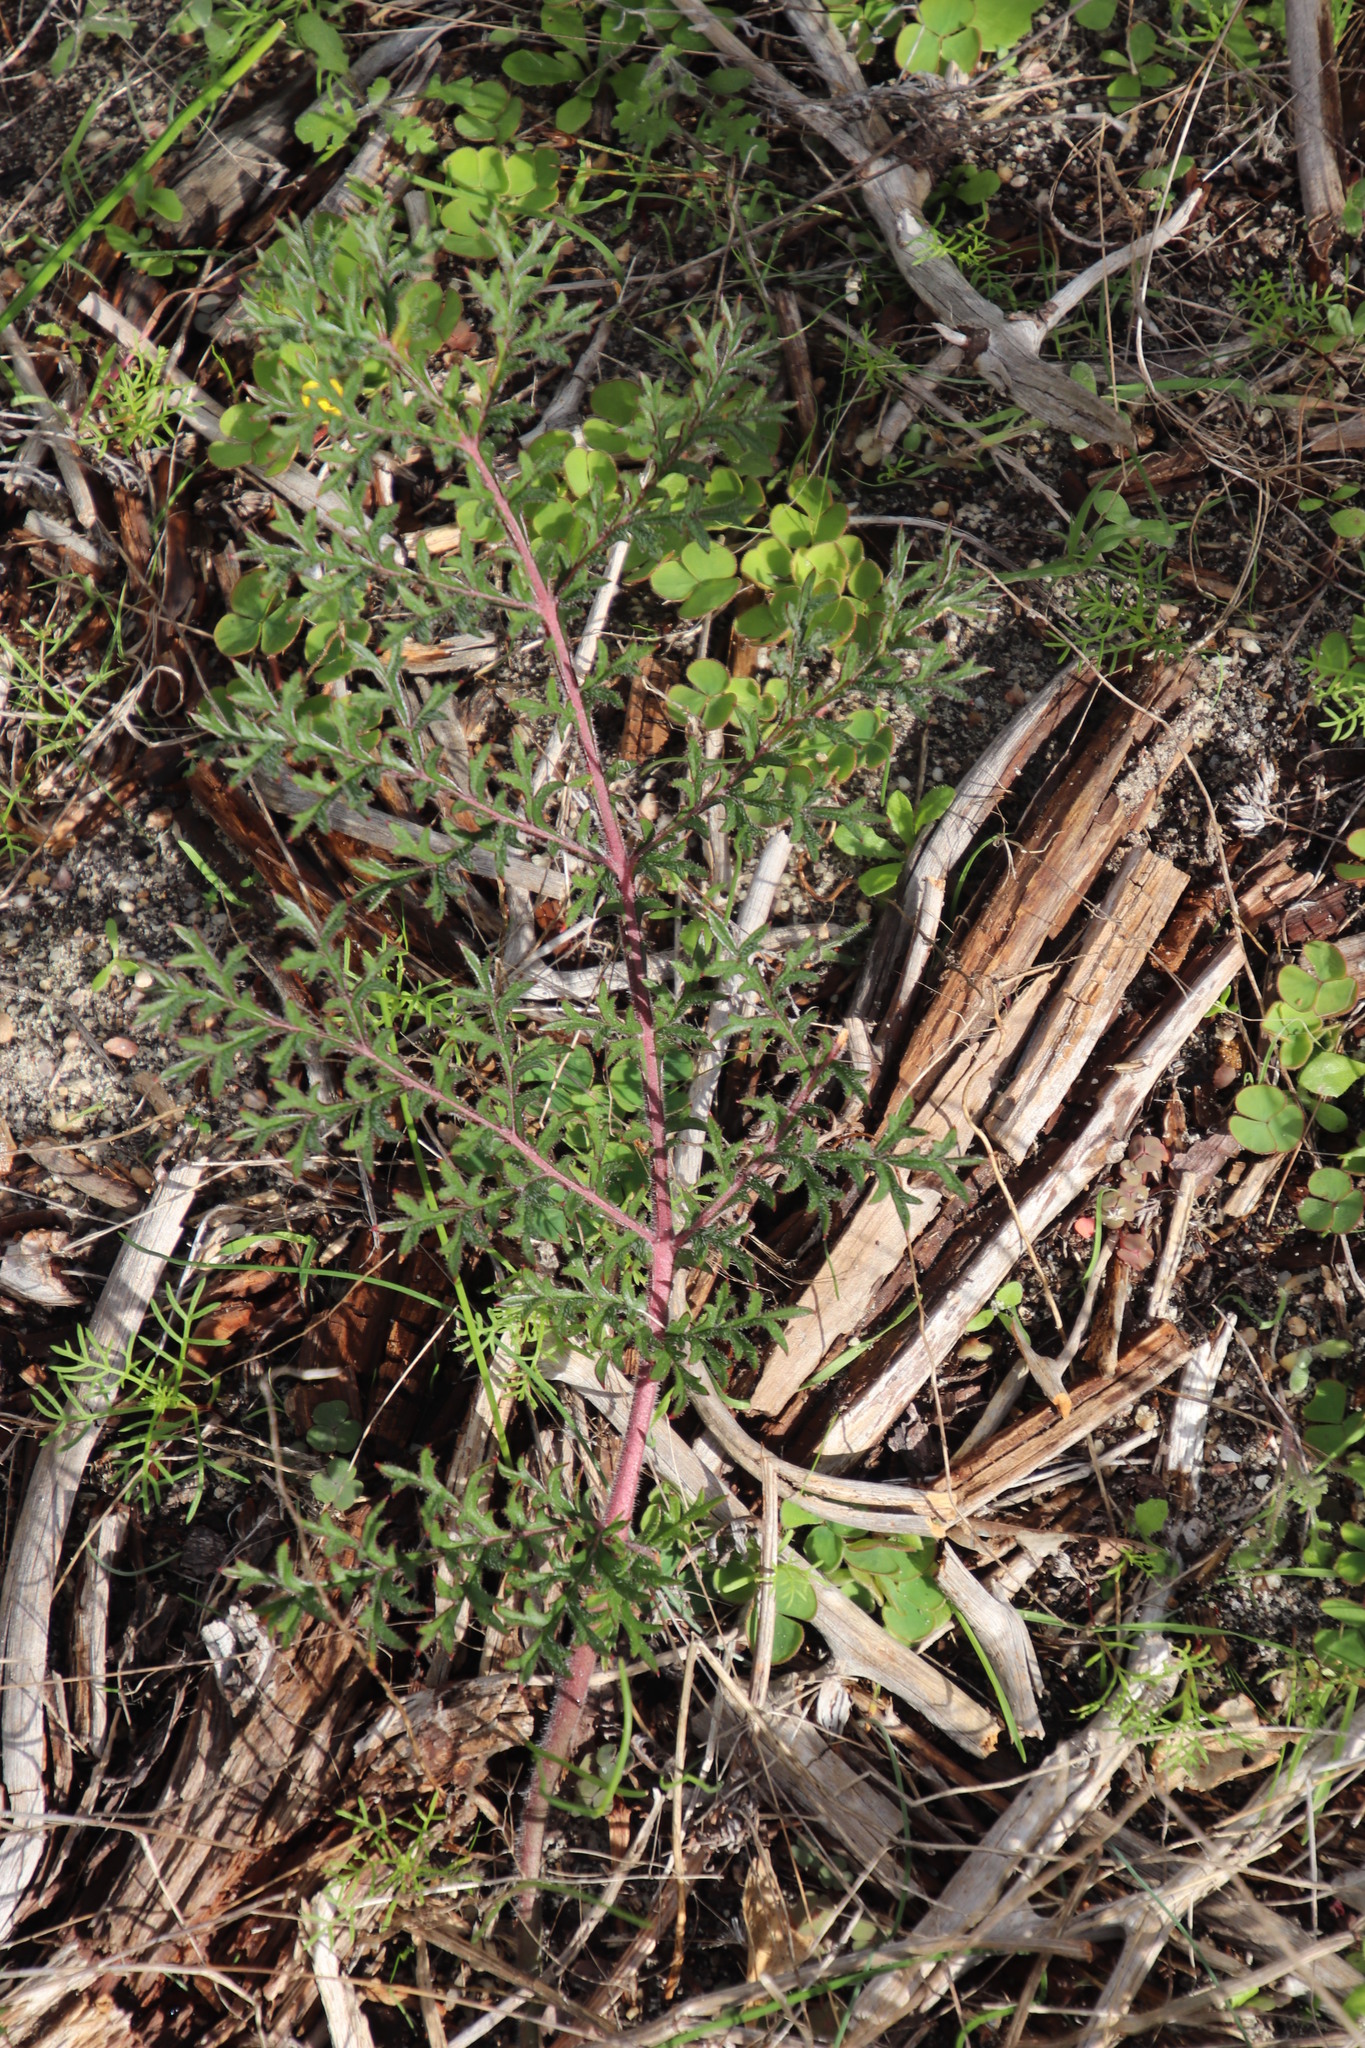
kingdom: Plantae
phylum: Tracheophyta
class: Magnoliopsida
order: Geraniales
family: Geraniaceae
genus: Pelargonium
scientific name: Pelargonium triste
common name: Night-scent pelargonium
